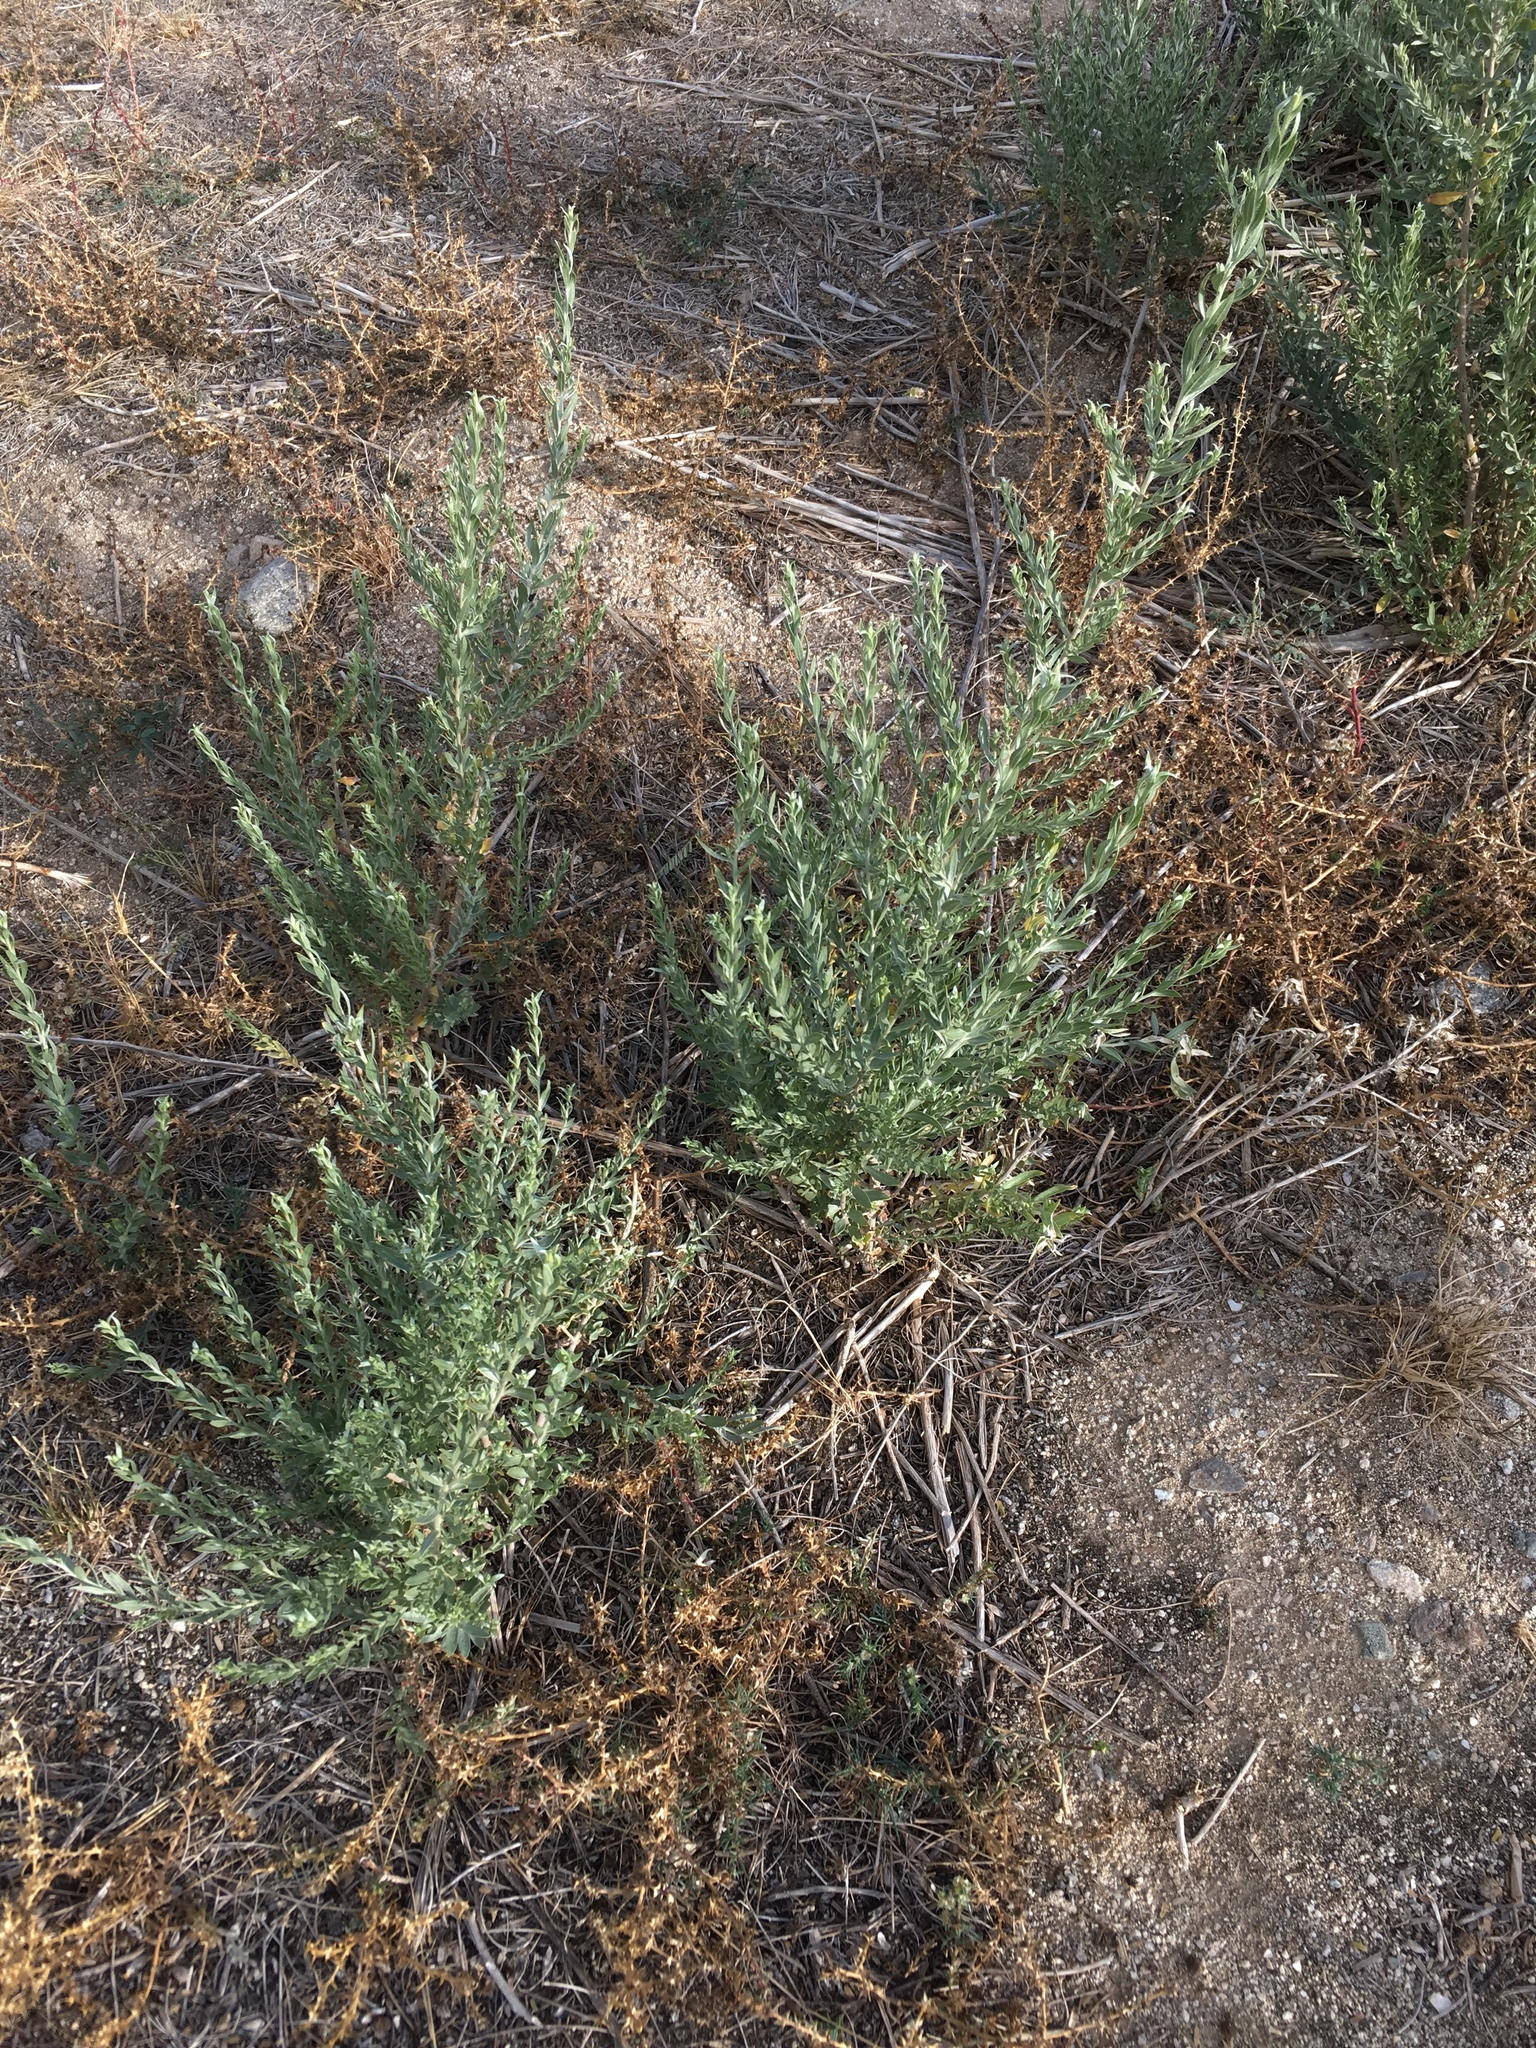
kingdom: Plantae
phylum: Tracheophyta
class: Magnoliopsida
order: Asterales
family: Asteraceae
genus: Pluchea
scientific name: Pluchea sericea
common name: Arrow-weed
